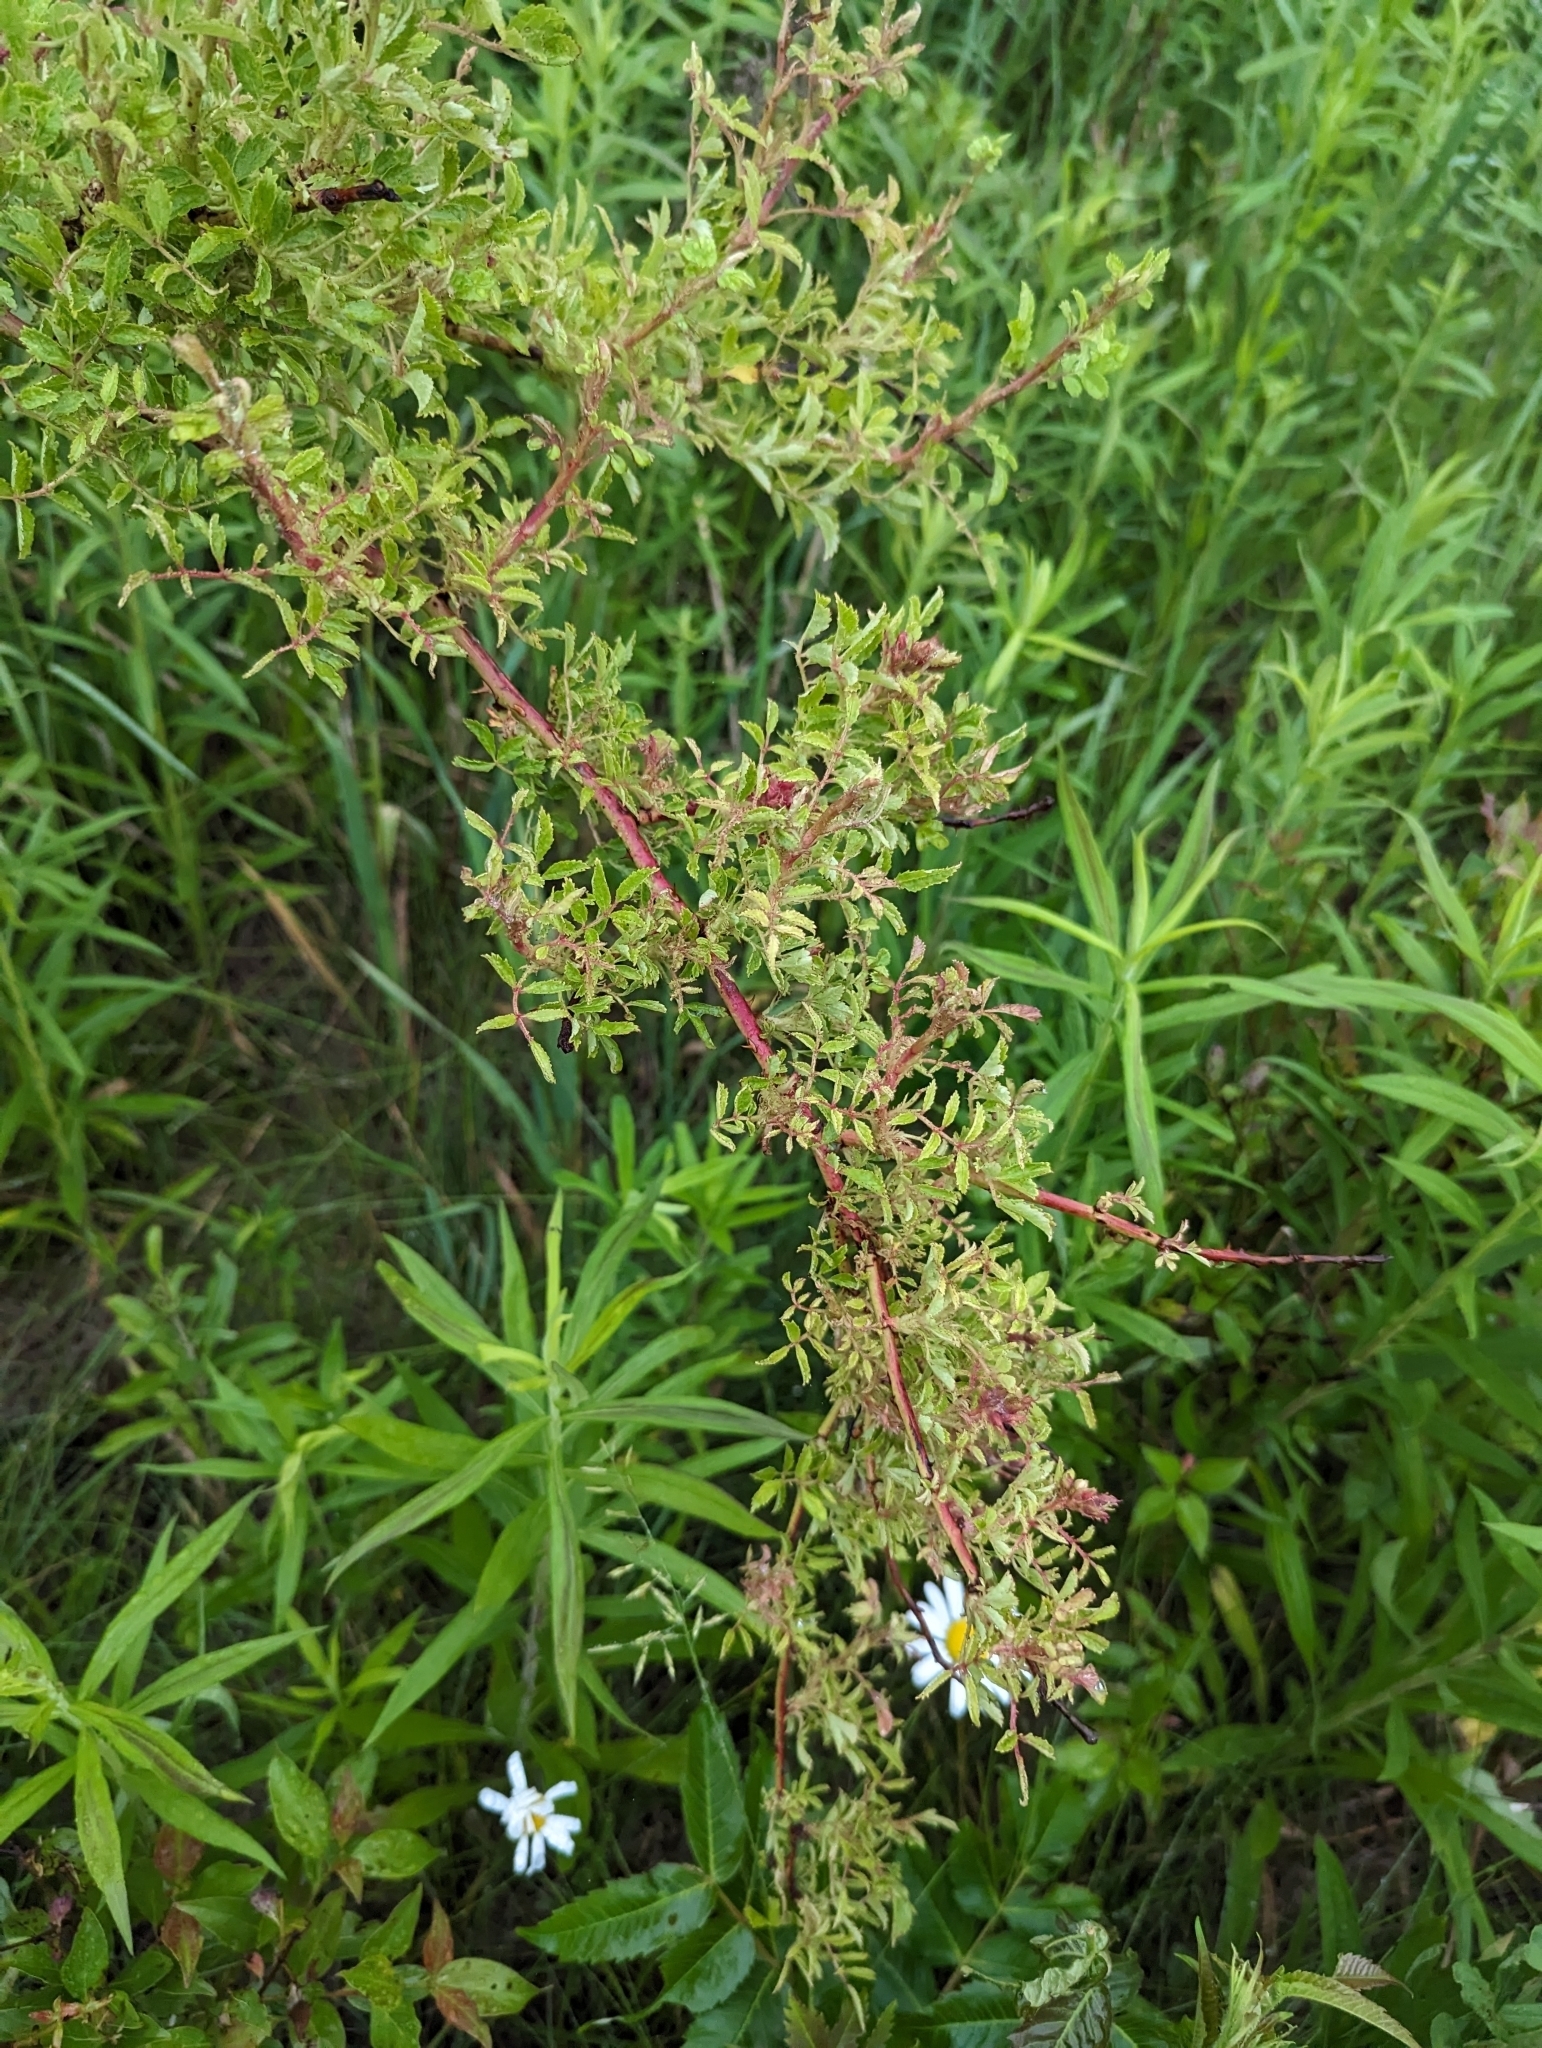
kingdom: Plantae
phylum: Tracheophyta
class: Magnoliopsida
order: Rosales
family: Rosaceae
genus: Rosa
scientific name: Rosa multiflora
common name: Multiflora rose
